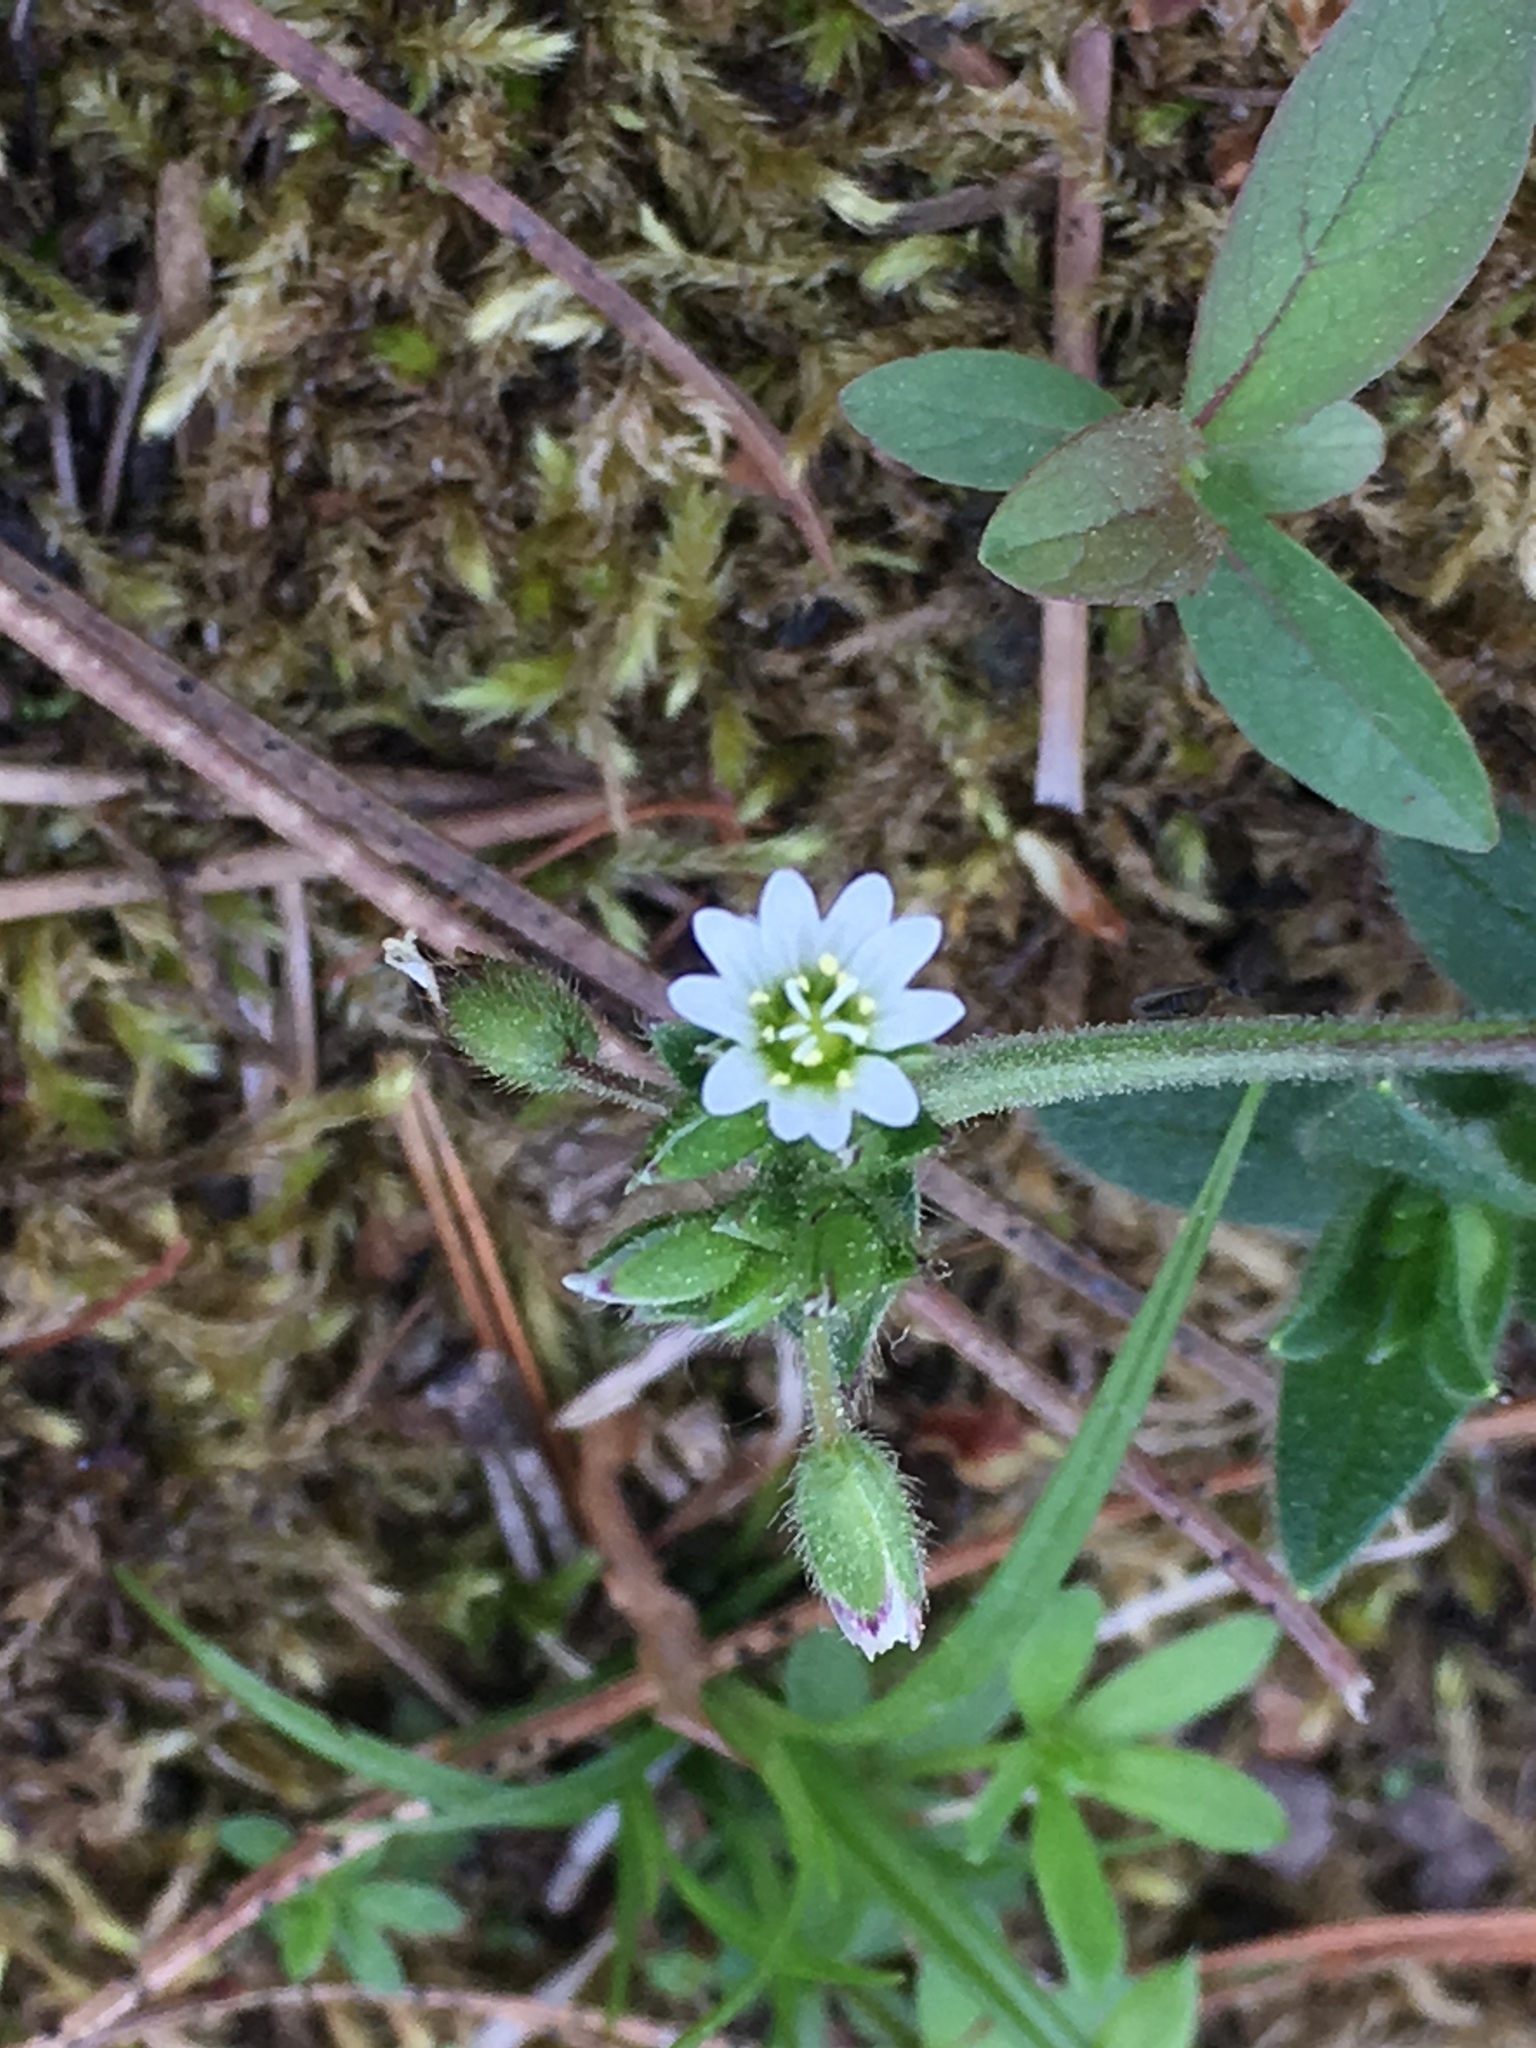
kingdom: Plantae
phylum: Tracheophyta
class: Magnoliopsida
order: Caryophyllales
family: Caryophyllaceae
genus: Cerastium
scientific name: Cerastium fontanum
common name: Common mouse-ear
